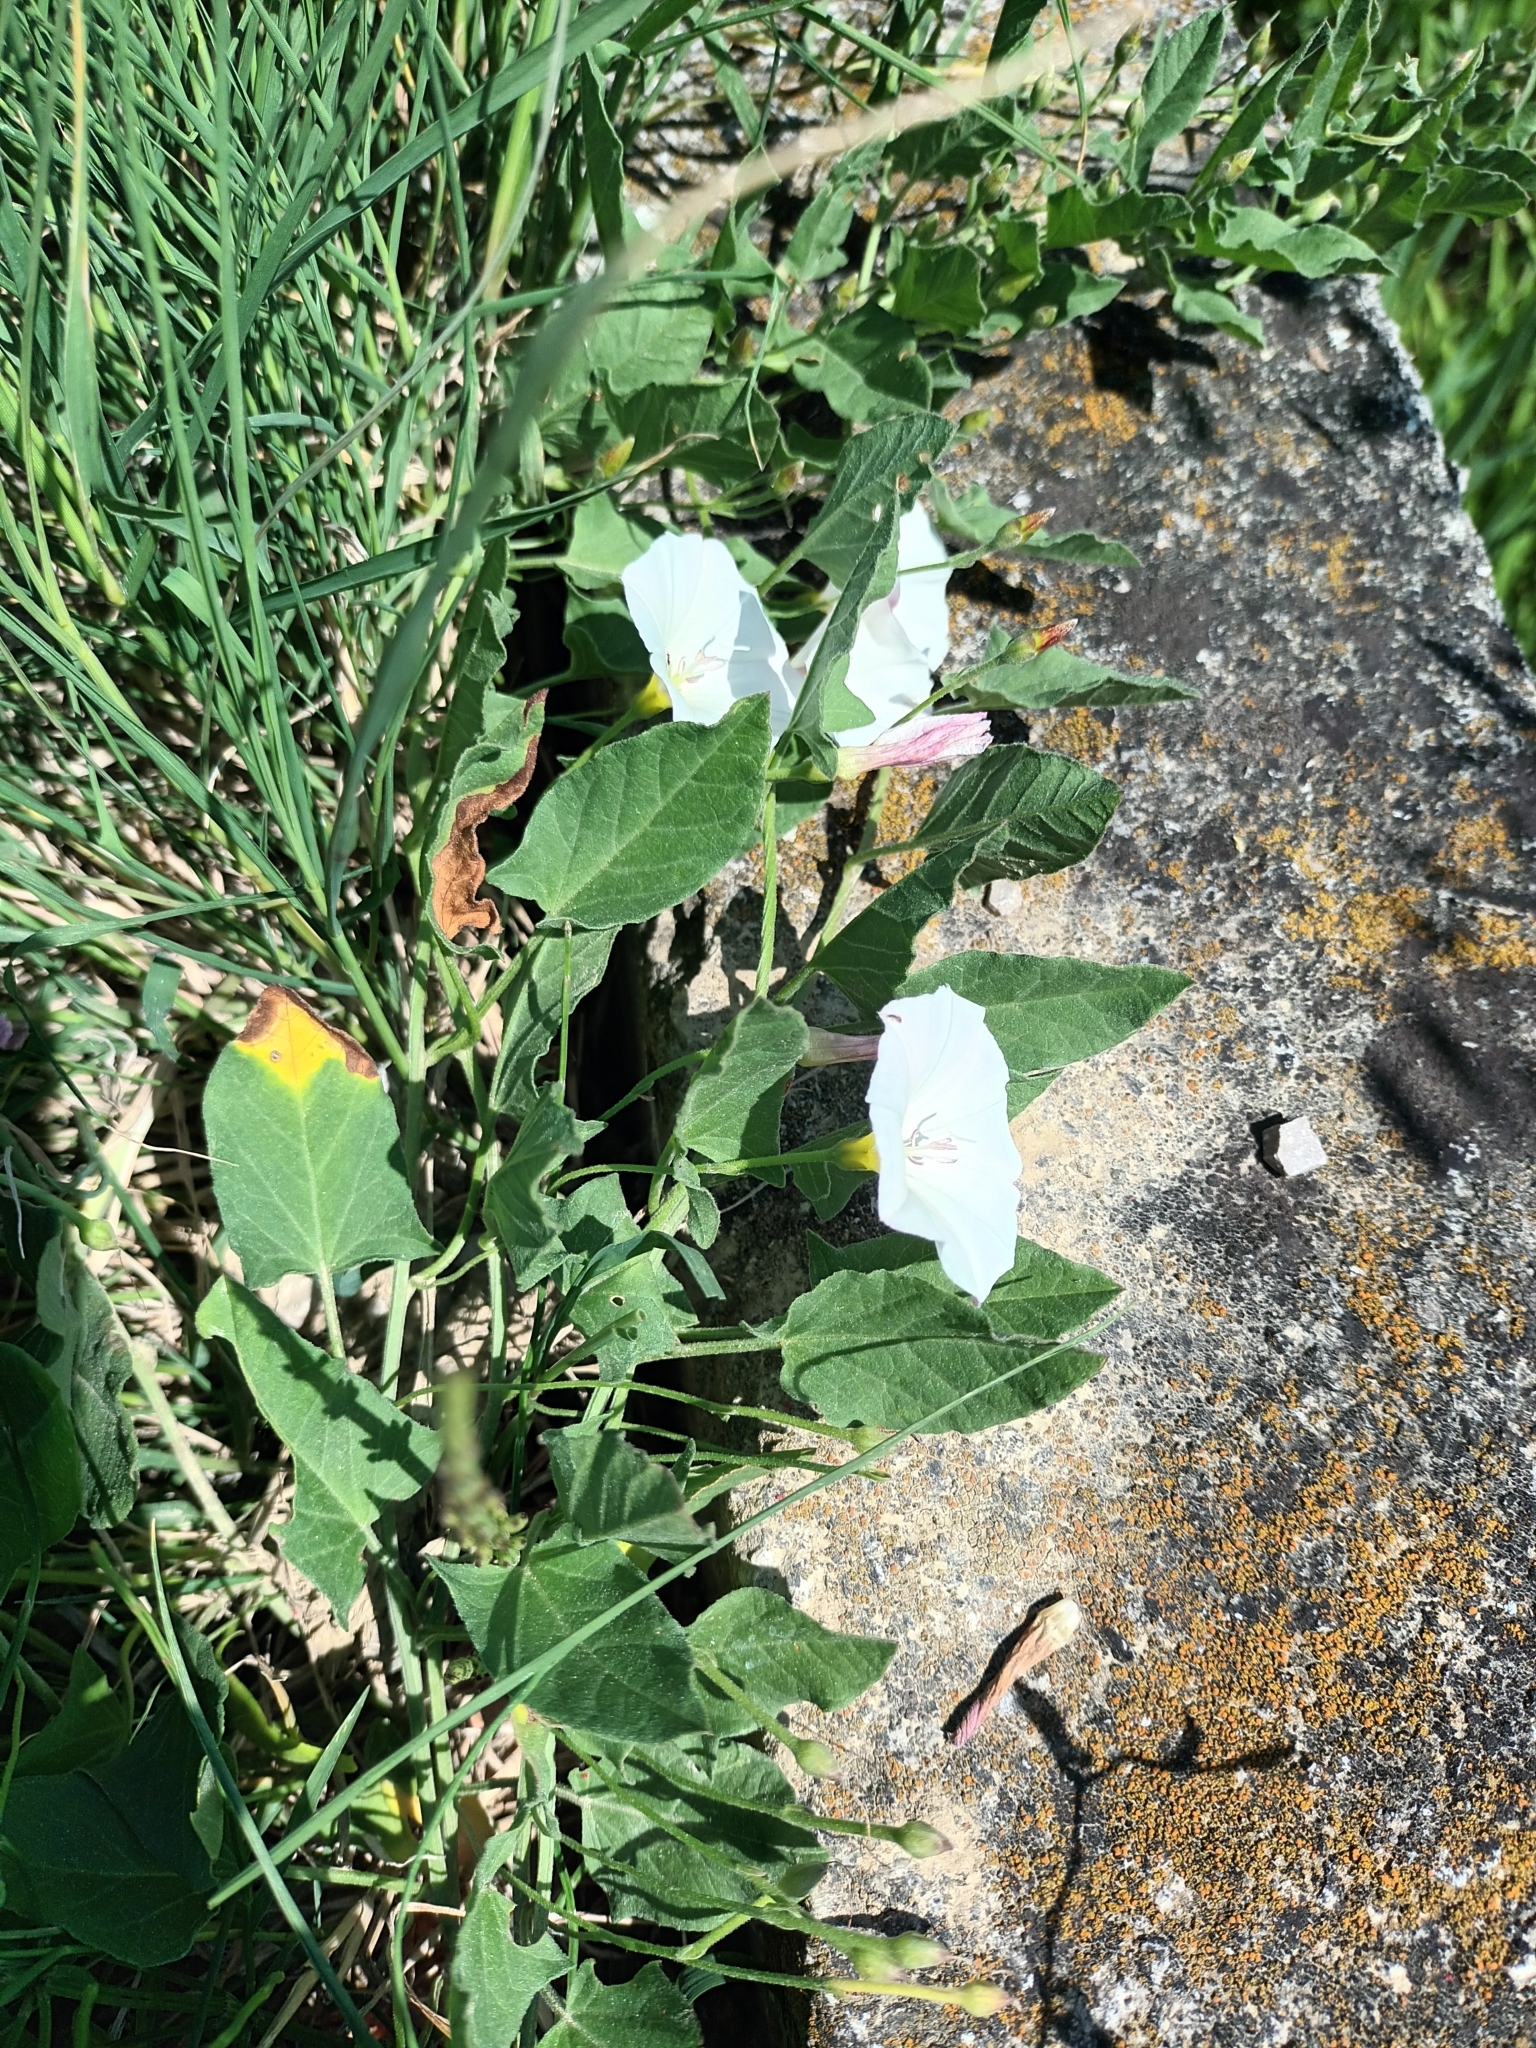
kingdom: Plantae
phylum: Tracheophyta
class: Magnoliopsida
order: Solanales
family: Convolvulaceae
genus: Convolvulus
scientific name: Convolvulus arvensis
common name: Field bindweed
